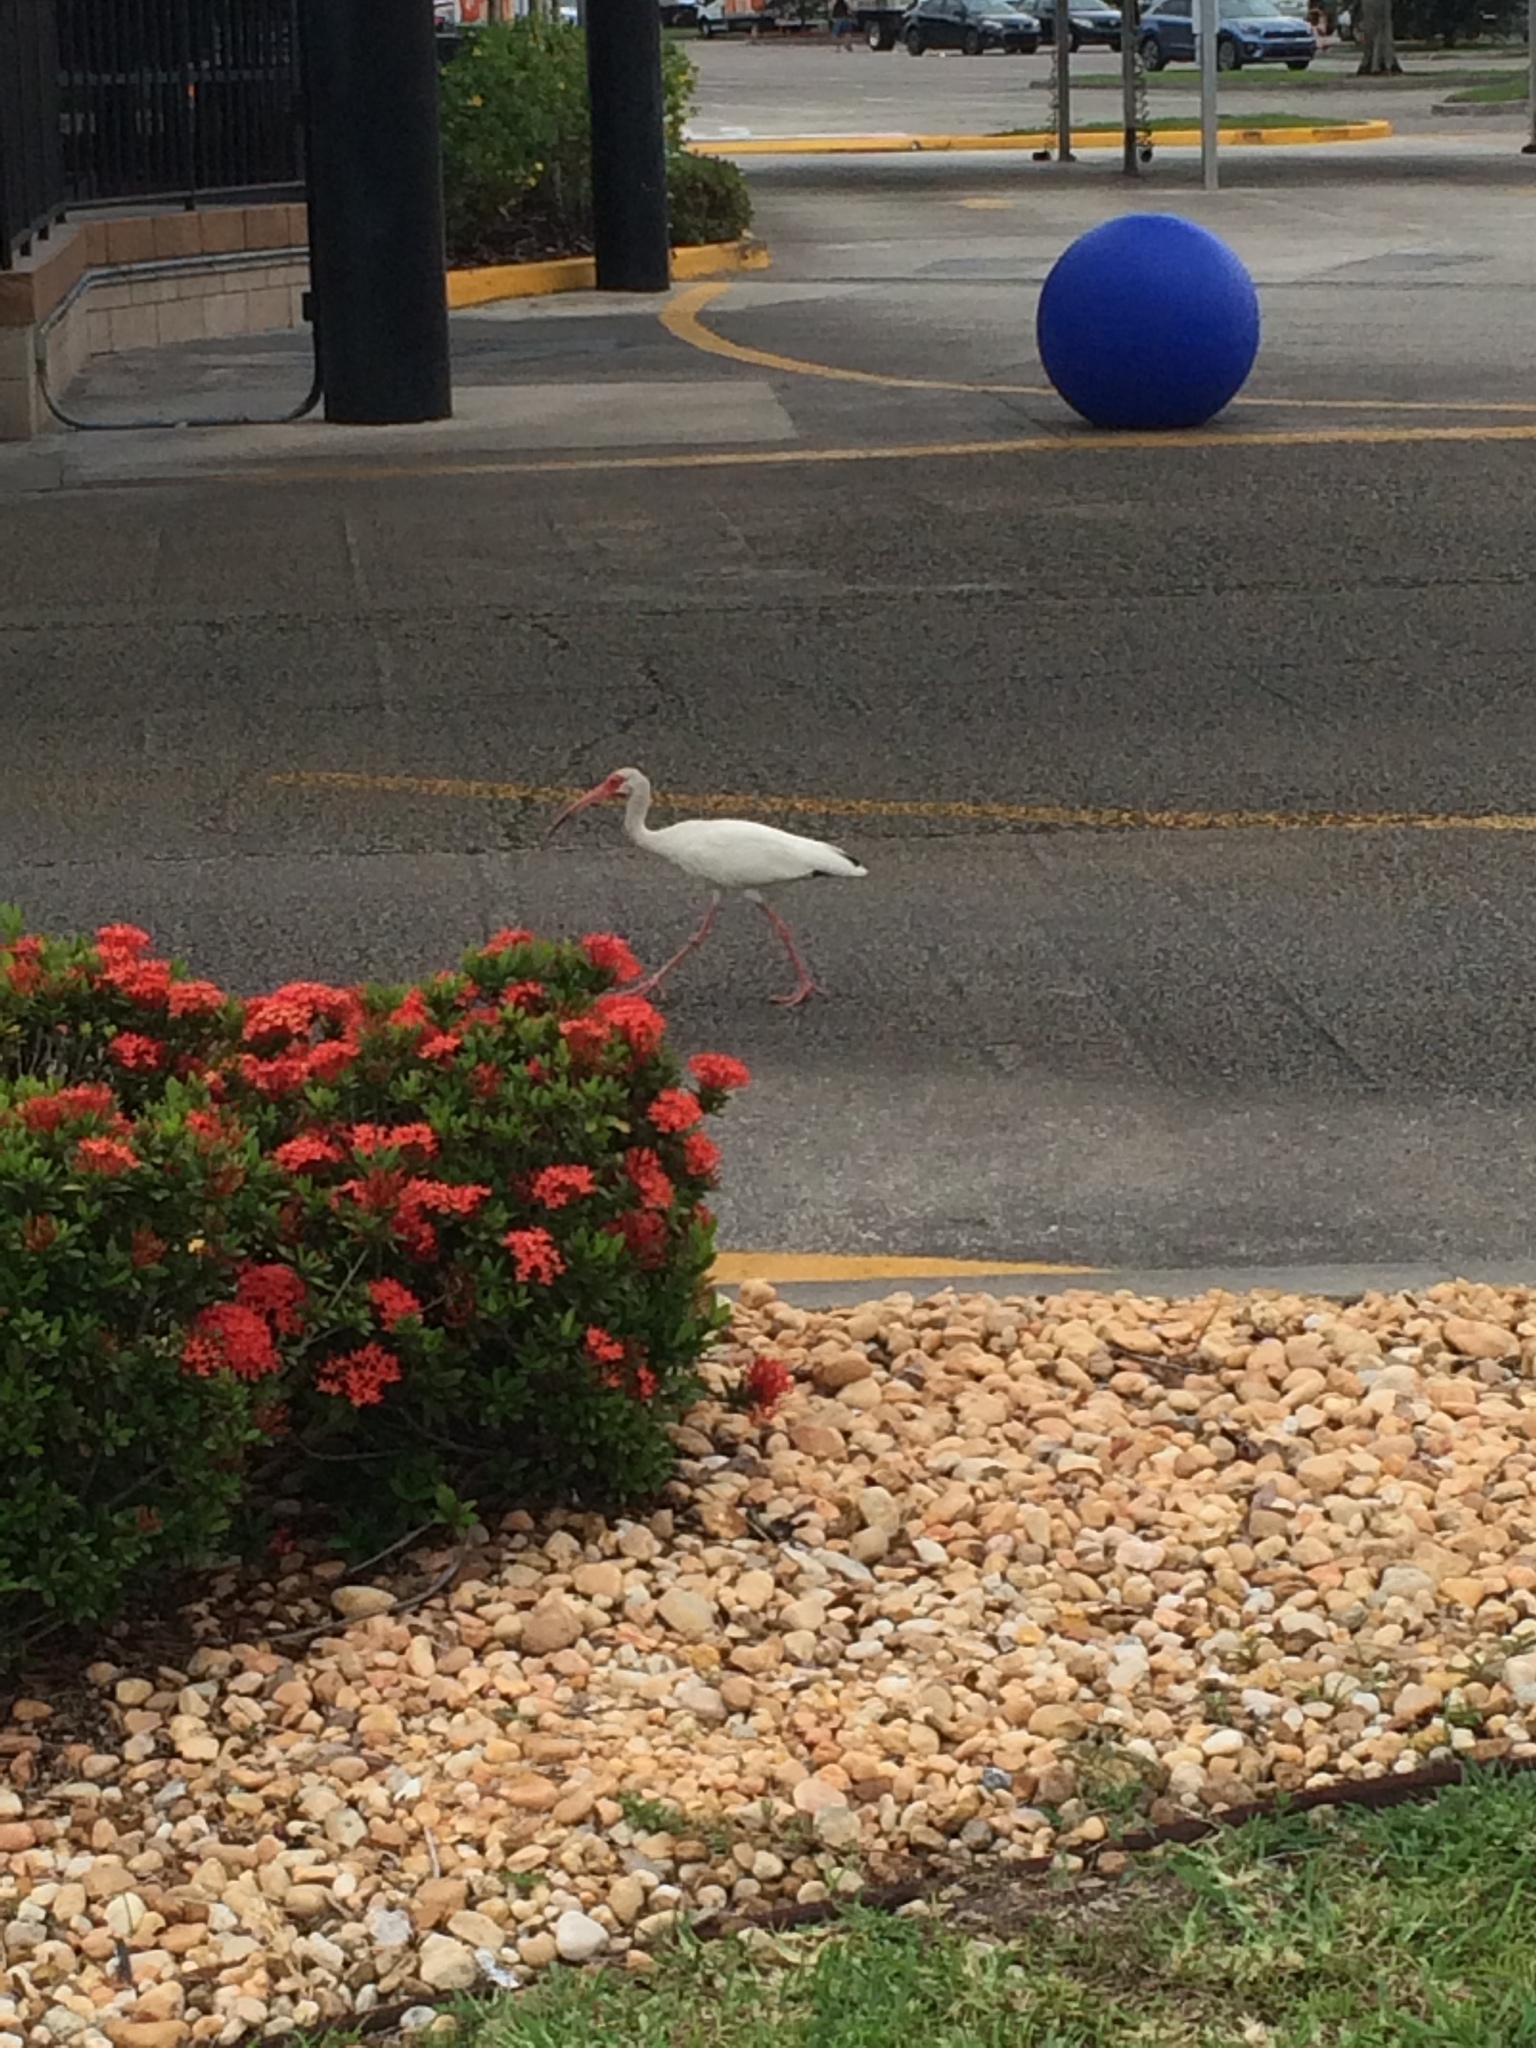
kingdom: Animalia
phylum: Chordata
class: Aves
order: Pelecaniformes
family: Threskiornithidae
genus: Eudocimus
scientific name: Eudocimus albus
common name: White ibis
